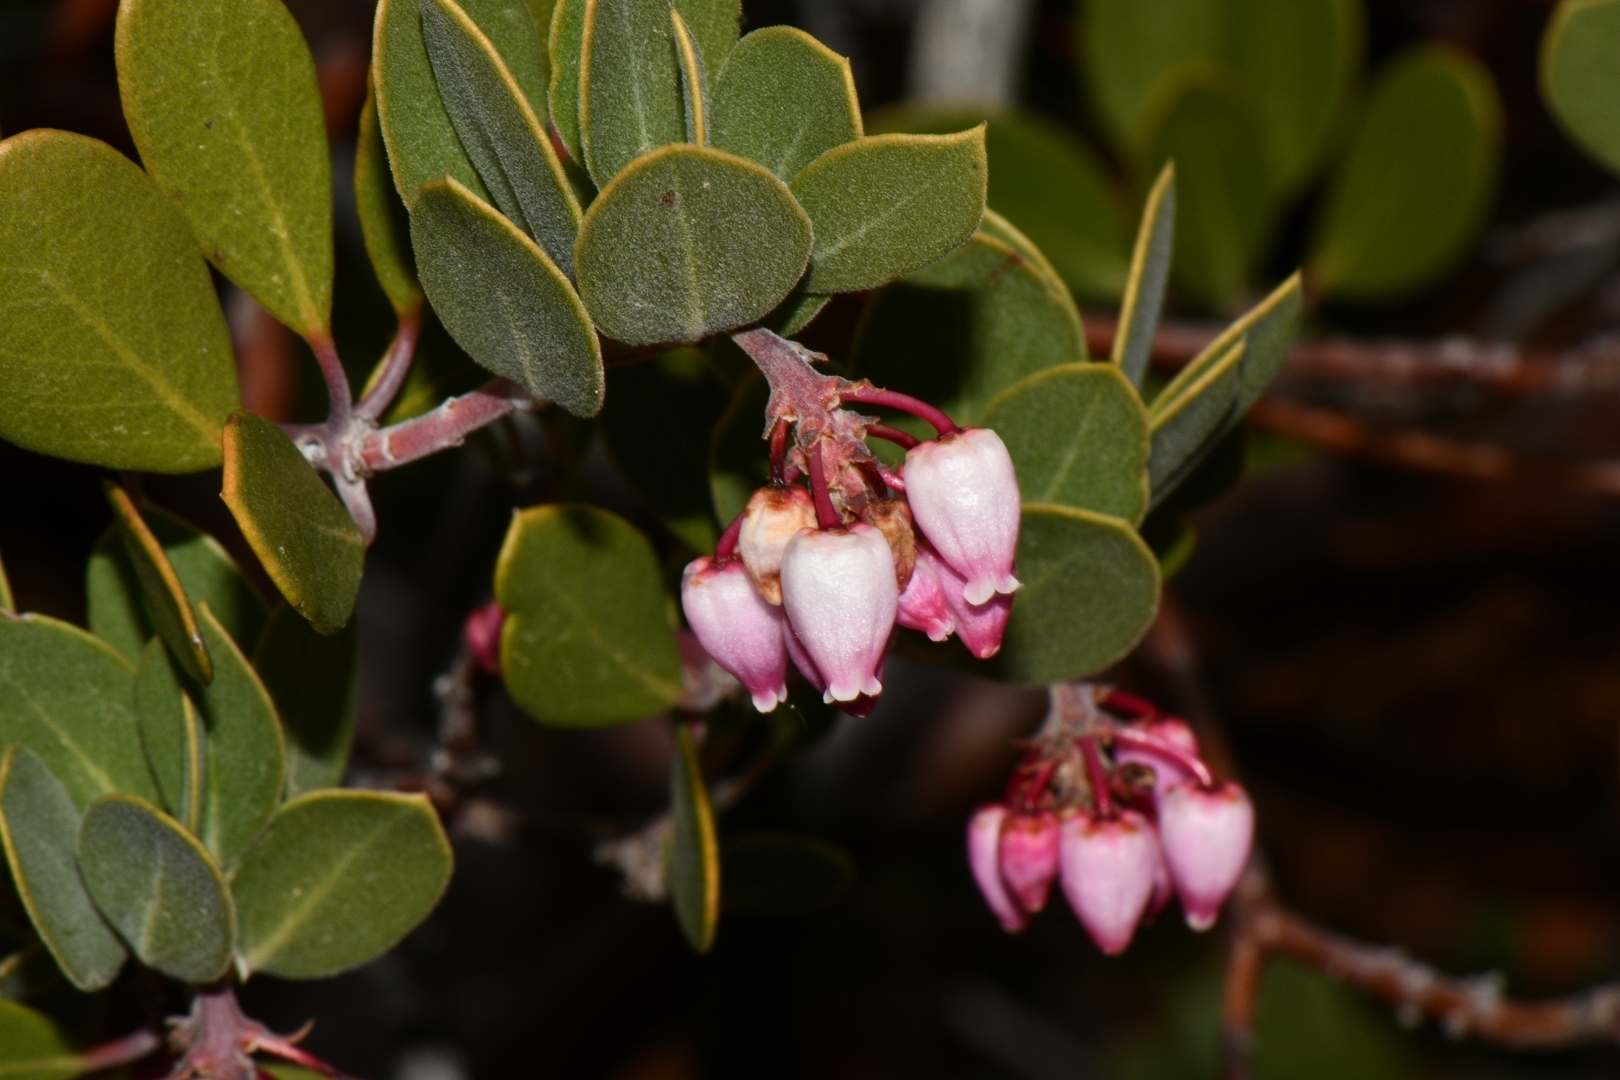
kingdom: Plantae
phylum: Tracheophyta
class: Magnoliopsida
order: Ericales
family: Ericaceae
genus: Arctostaphylos
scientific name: Arctostaphylos patula
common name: Green-leaf manzanita
